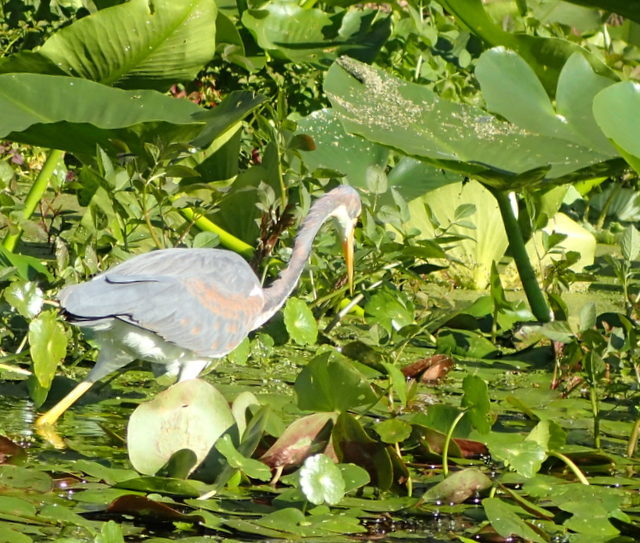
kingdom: Animalia
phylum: Chordata
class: Aves
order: Pelecaniformes
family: Ardeidae
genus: Egretta
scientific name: Egretta tricolor
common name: Tricolored heron
